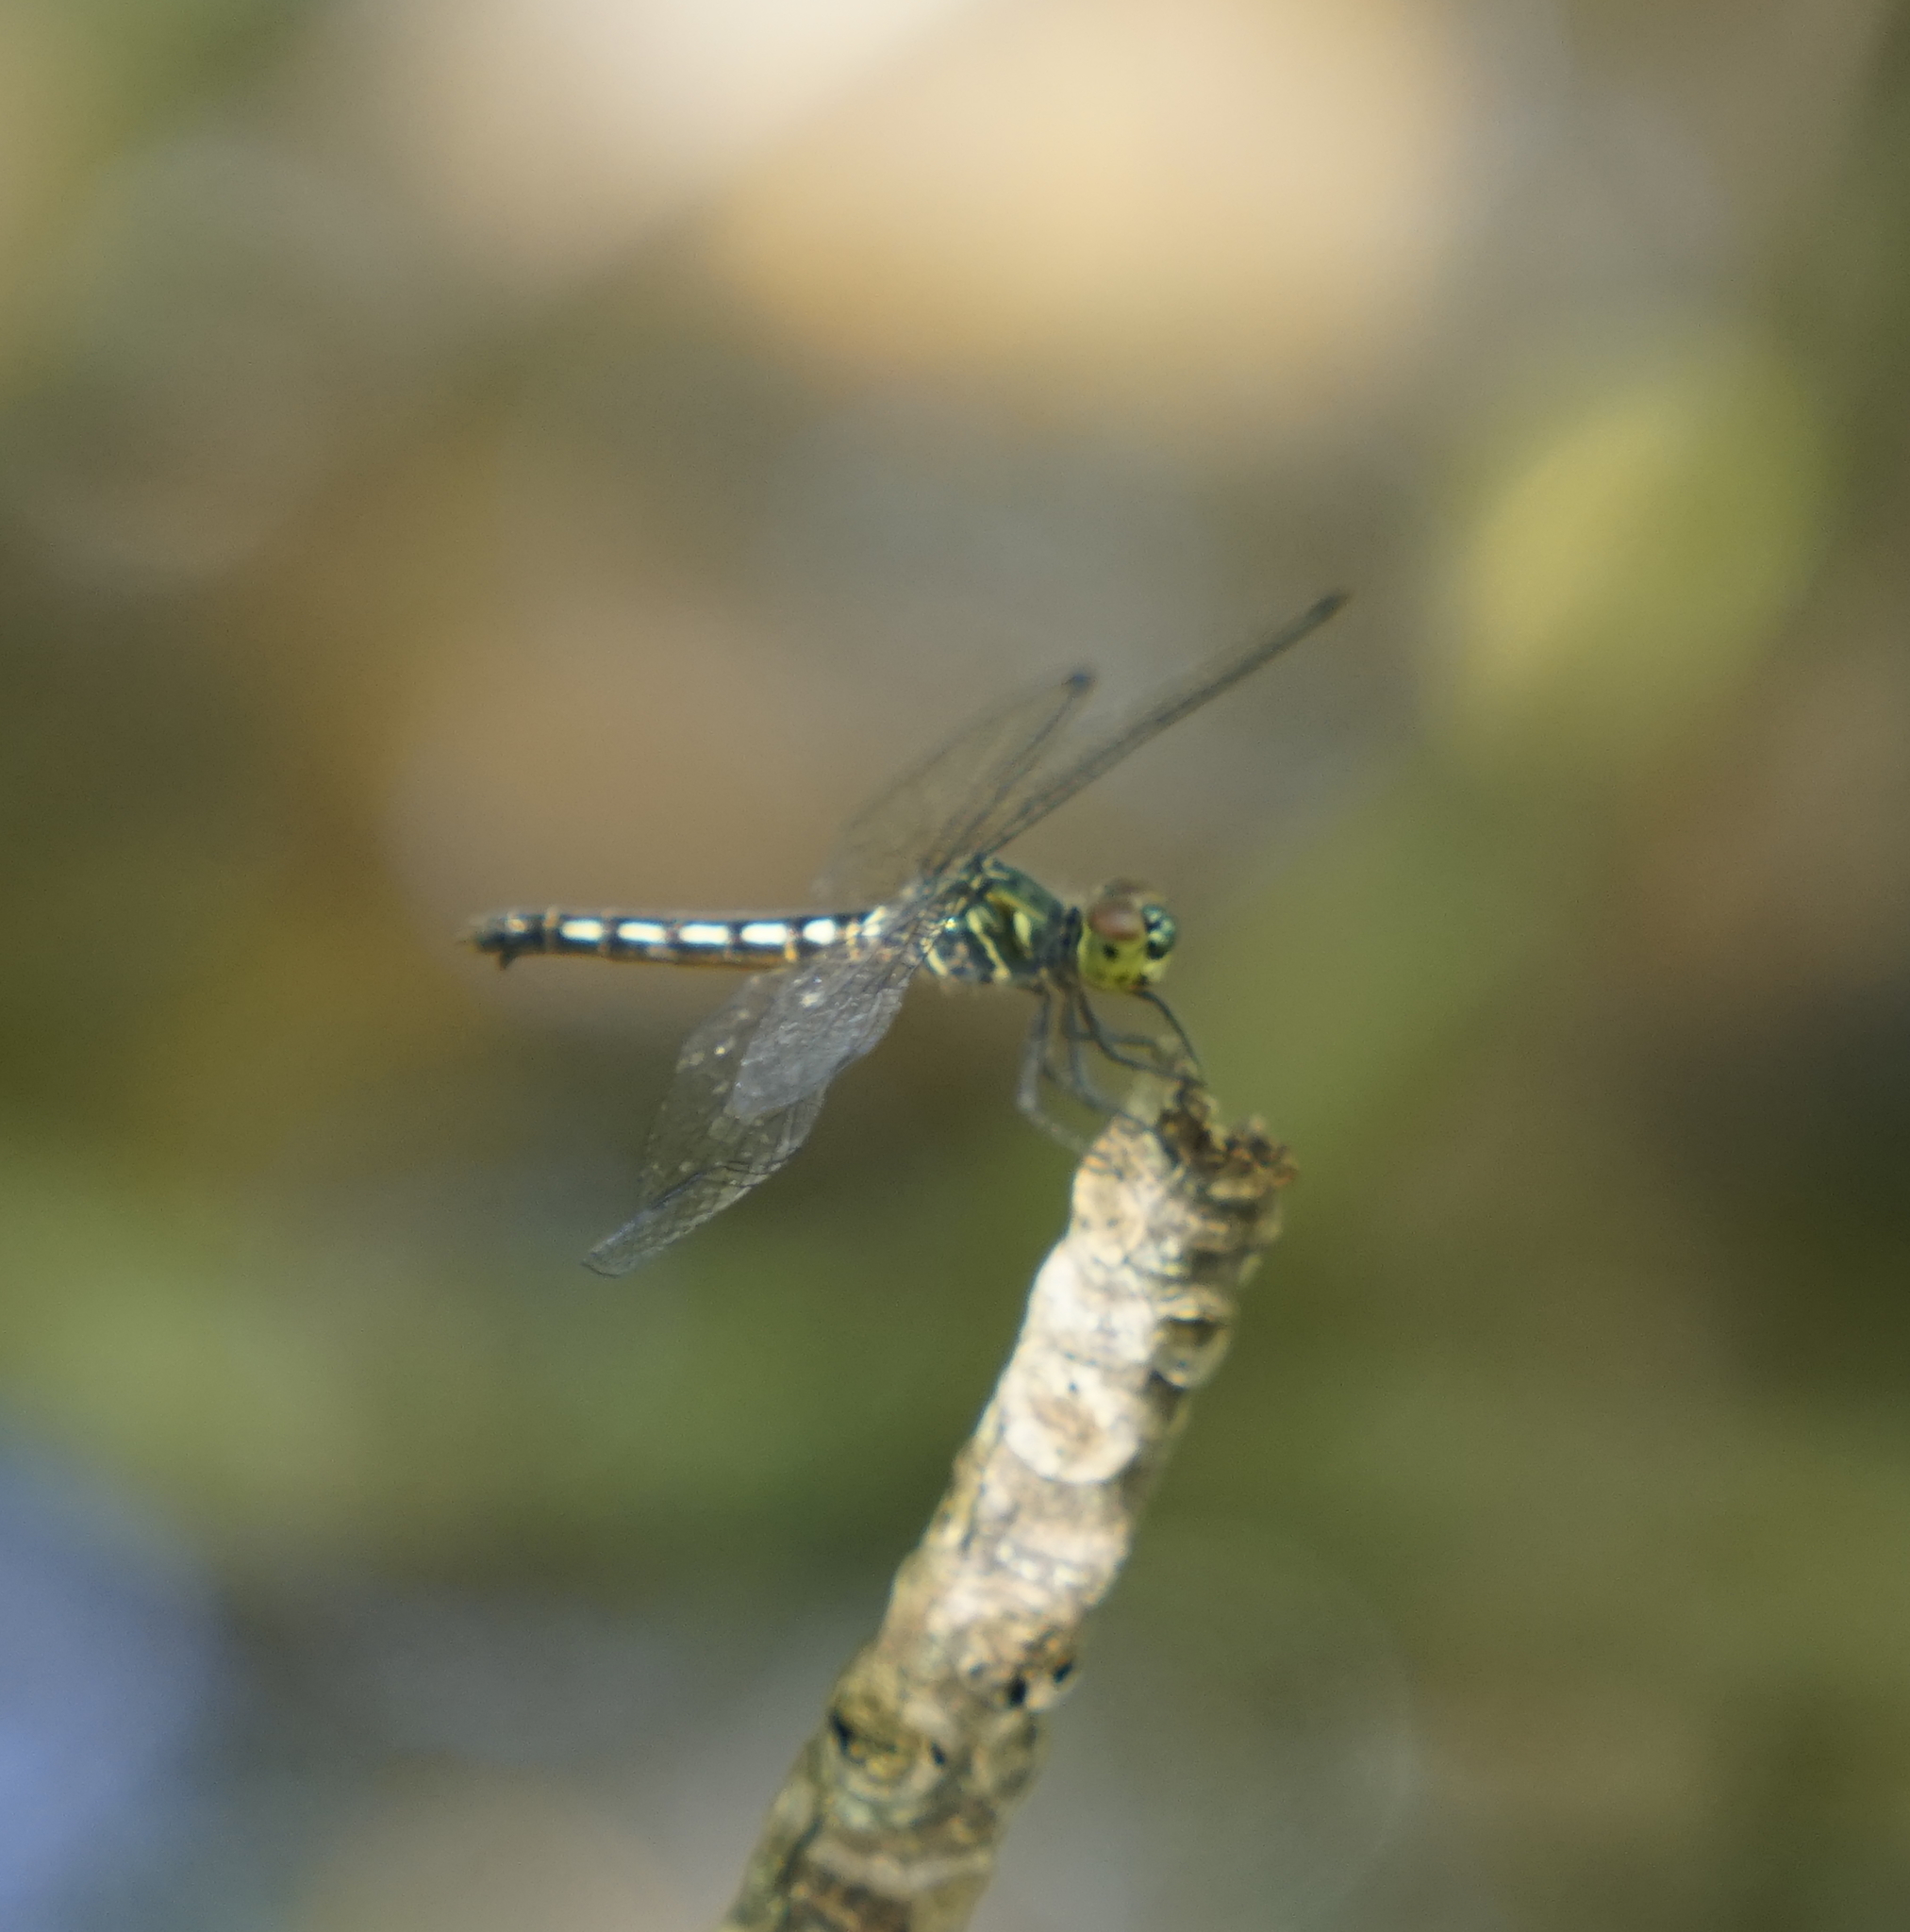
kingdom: Animalia
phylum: Arthropoda
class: Insecta
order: Odonata
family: Libellulidae
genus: Raphismia
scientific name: Raphismia bispina
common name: Mangrove dwarf
